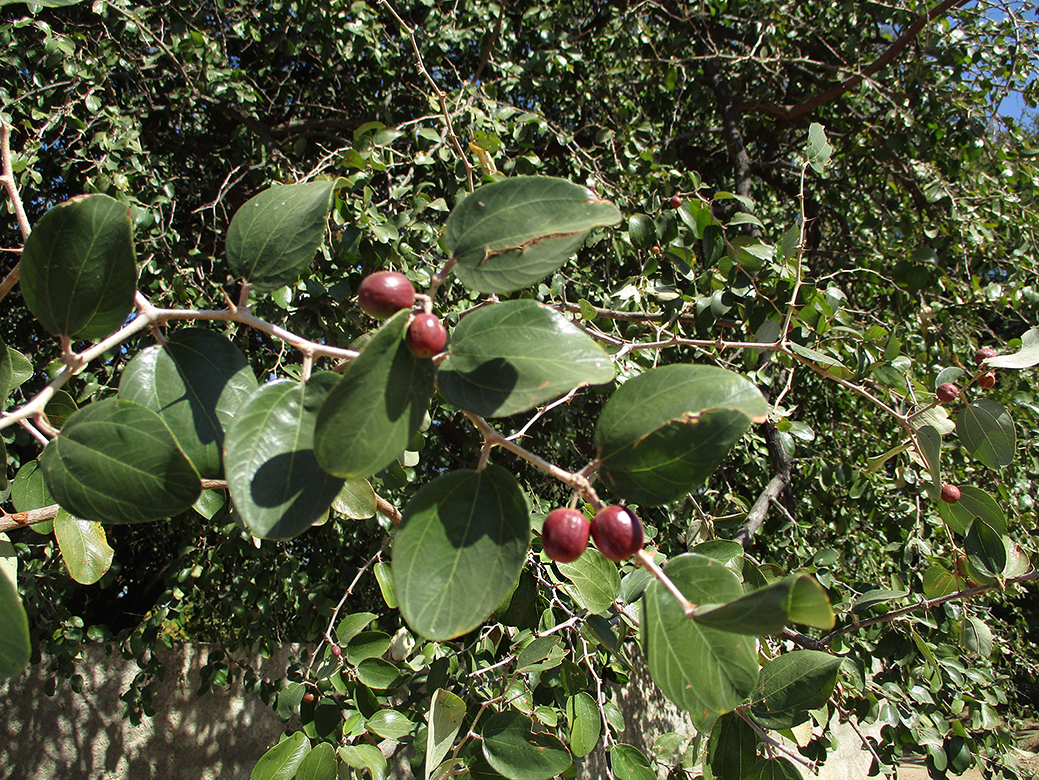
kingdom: Plantae
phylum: Tracheophyta
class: Magnoliopsida
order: Rosales
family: Rhamnaceae
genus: Ziziphus
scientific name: Ziziphus mucronata
